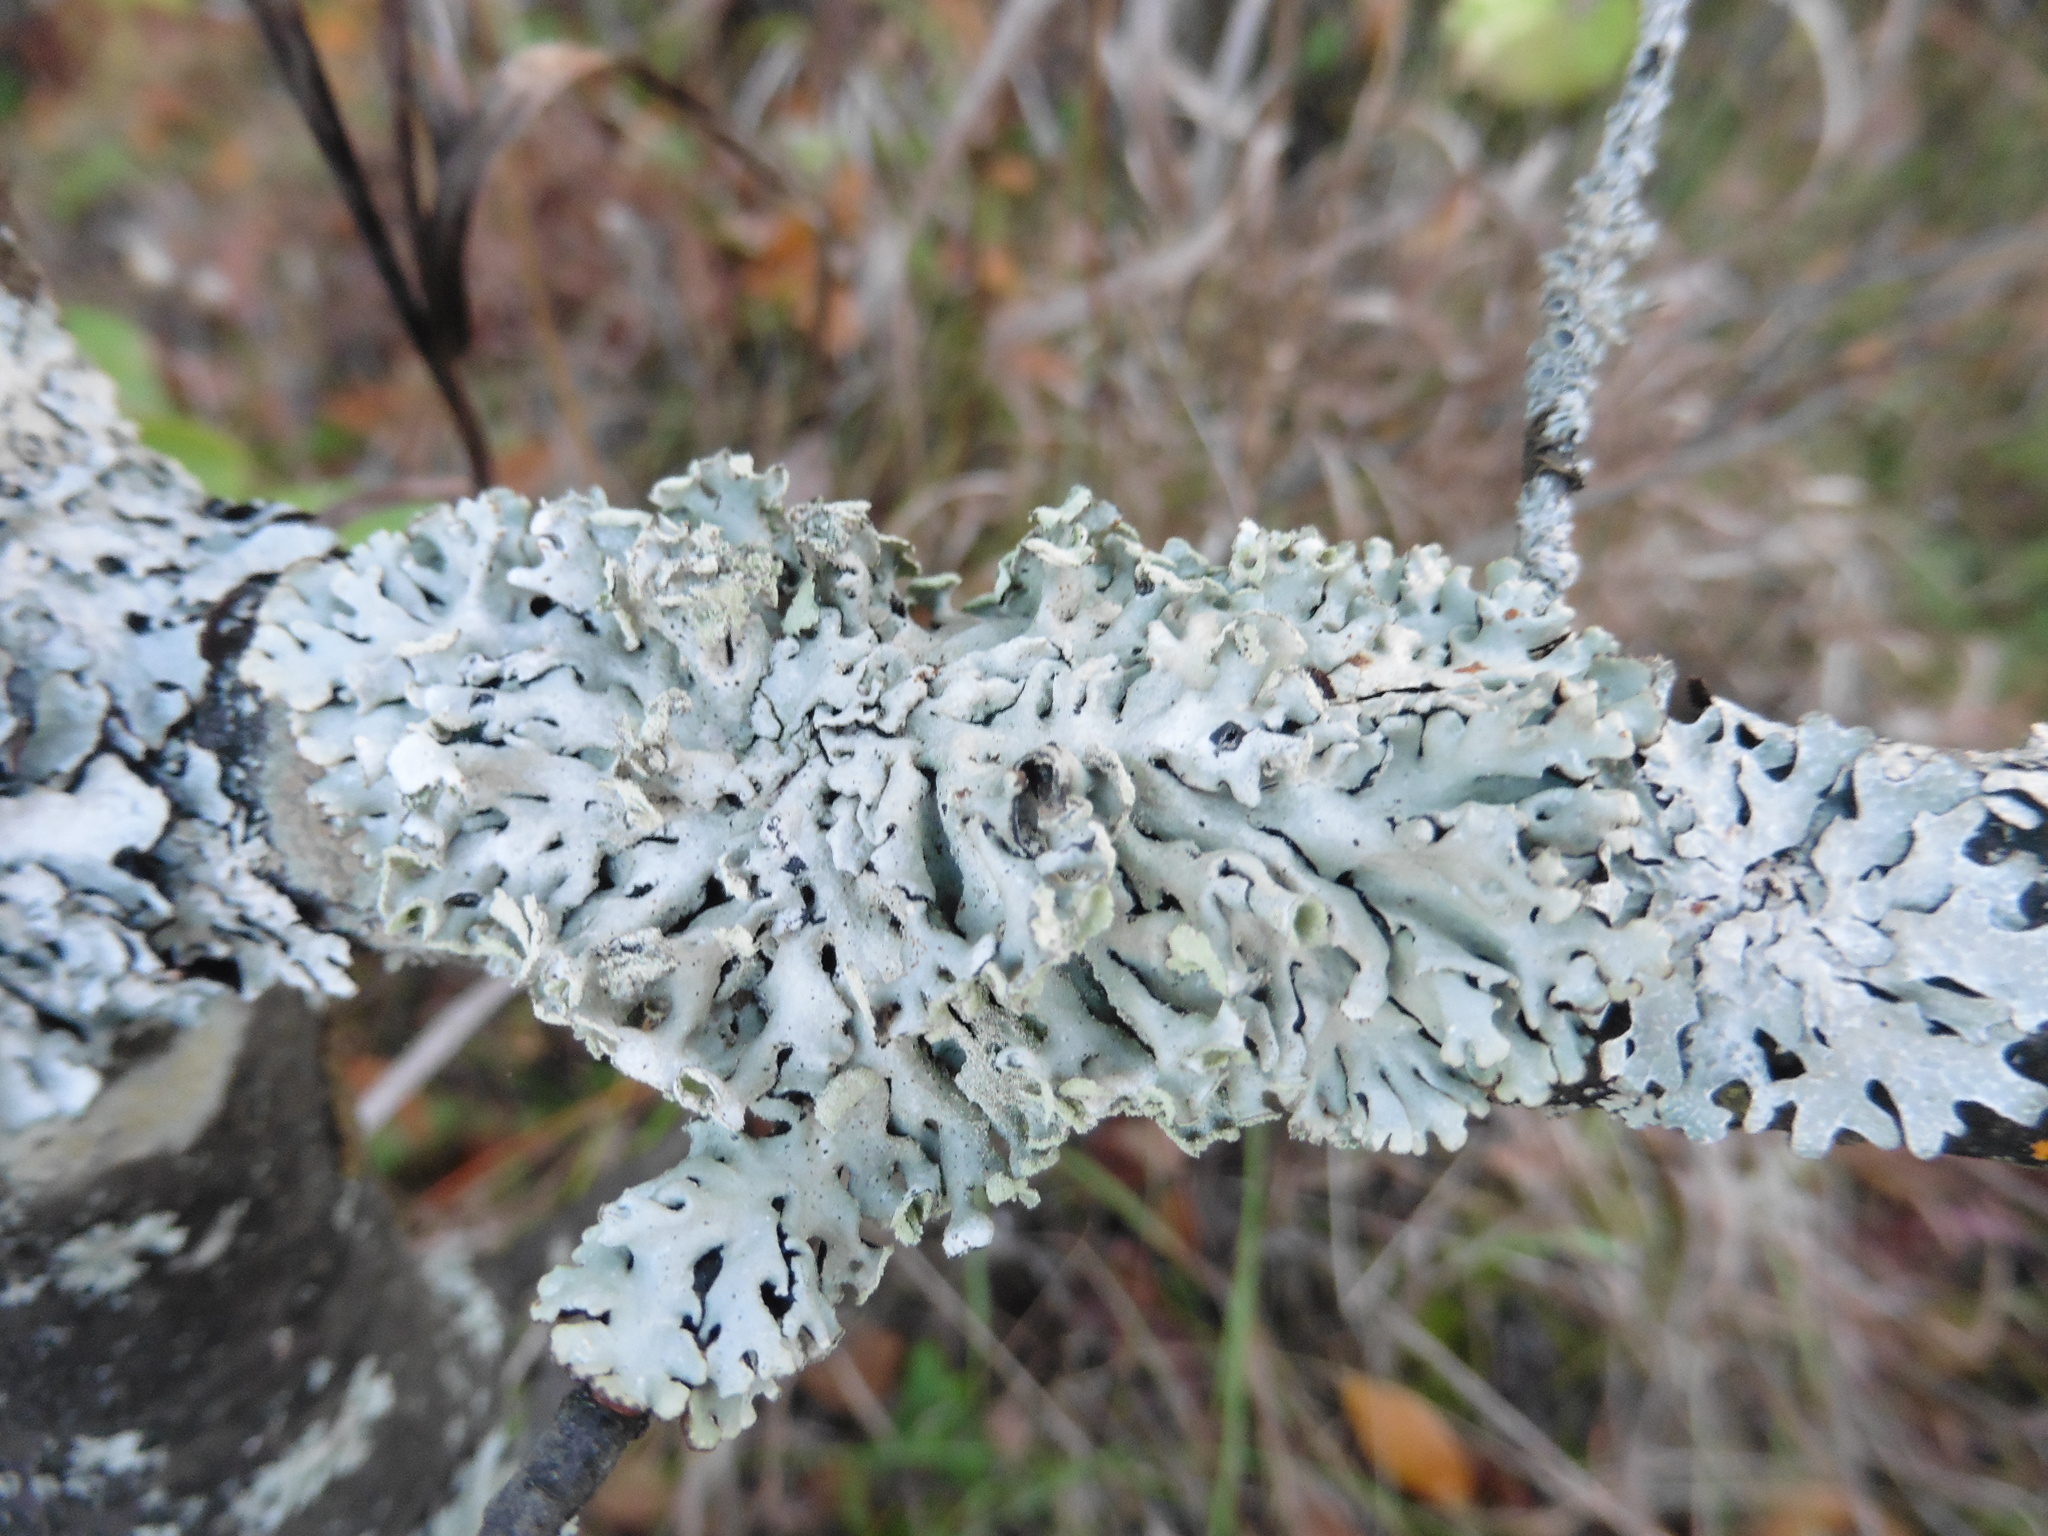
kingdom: Fungi
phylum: Ascomycota
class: Lecanoromycetes
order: Lecanorales
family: Parmeliaceae
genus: Hypogymnia
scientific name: Hypogymnia physodes
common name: Dark crottle
